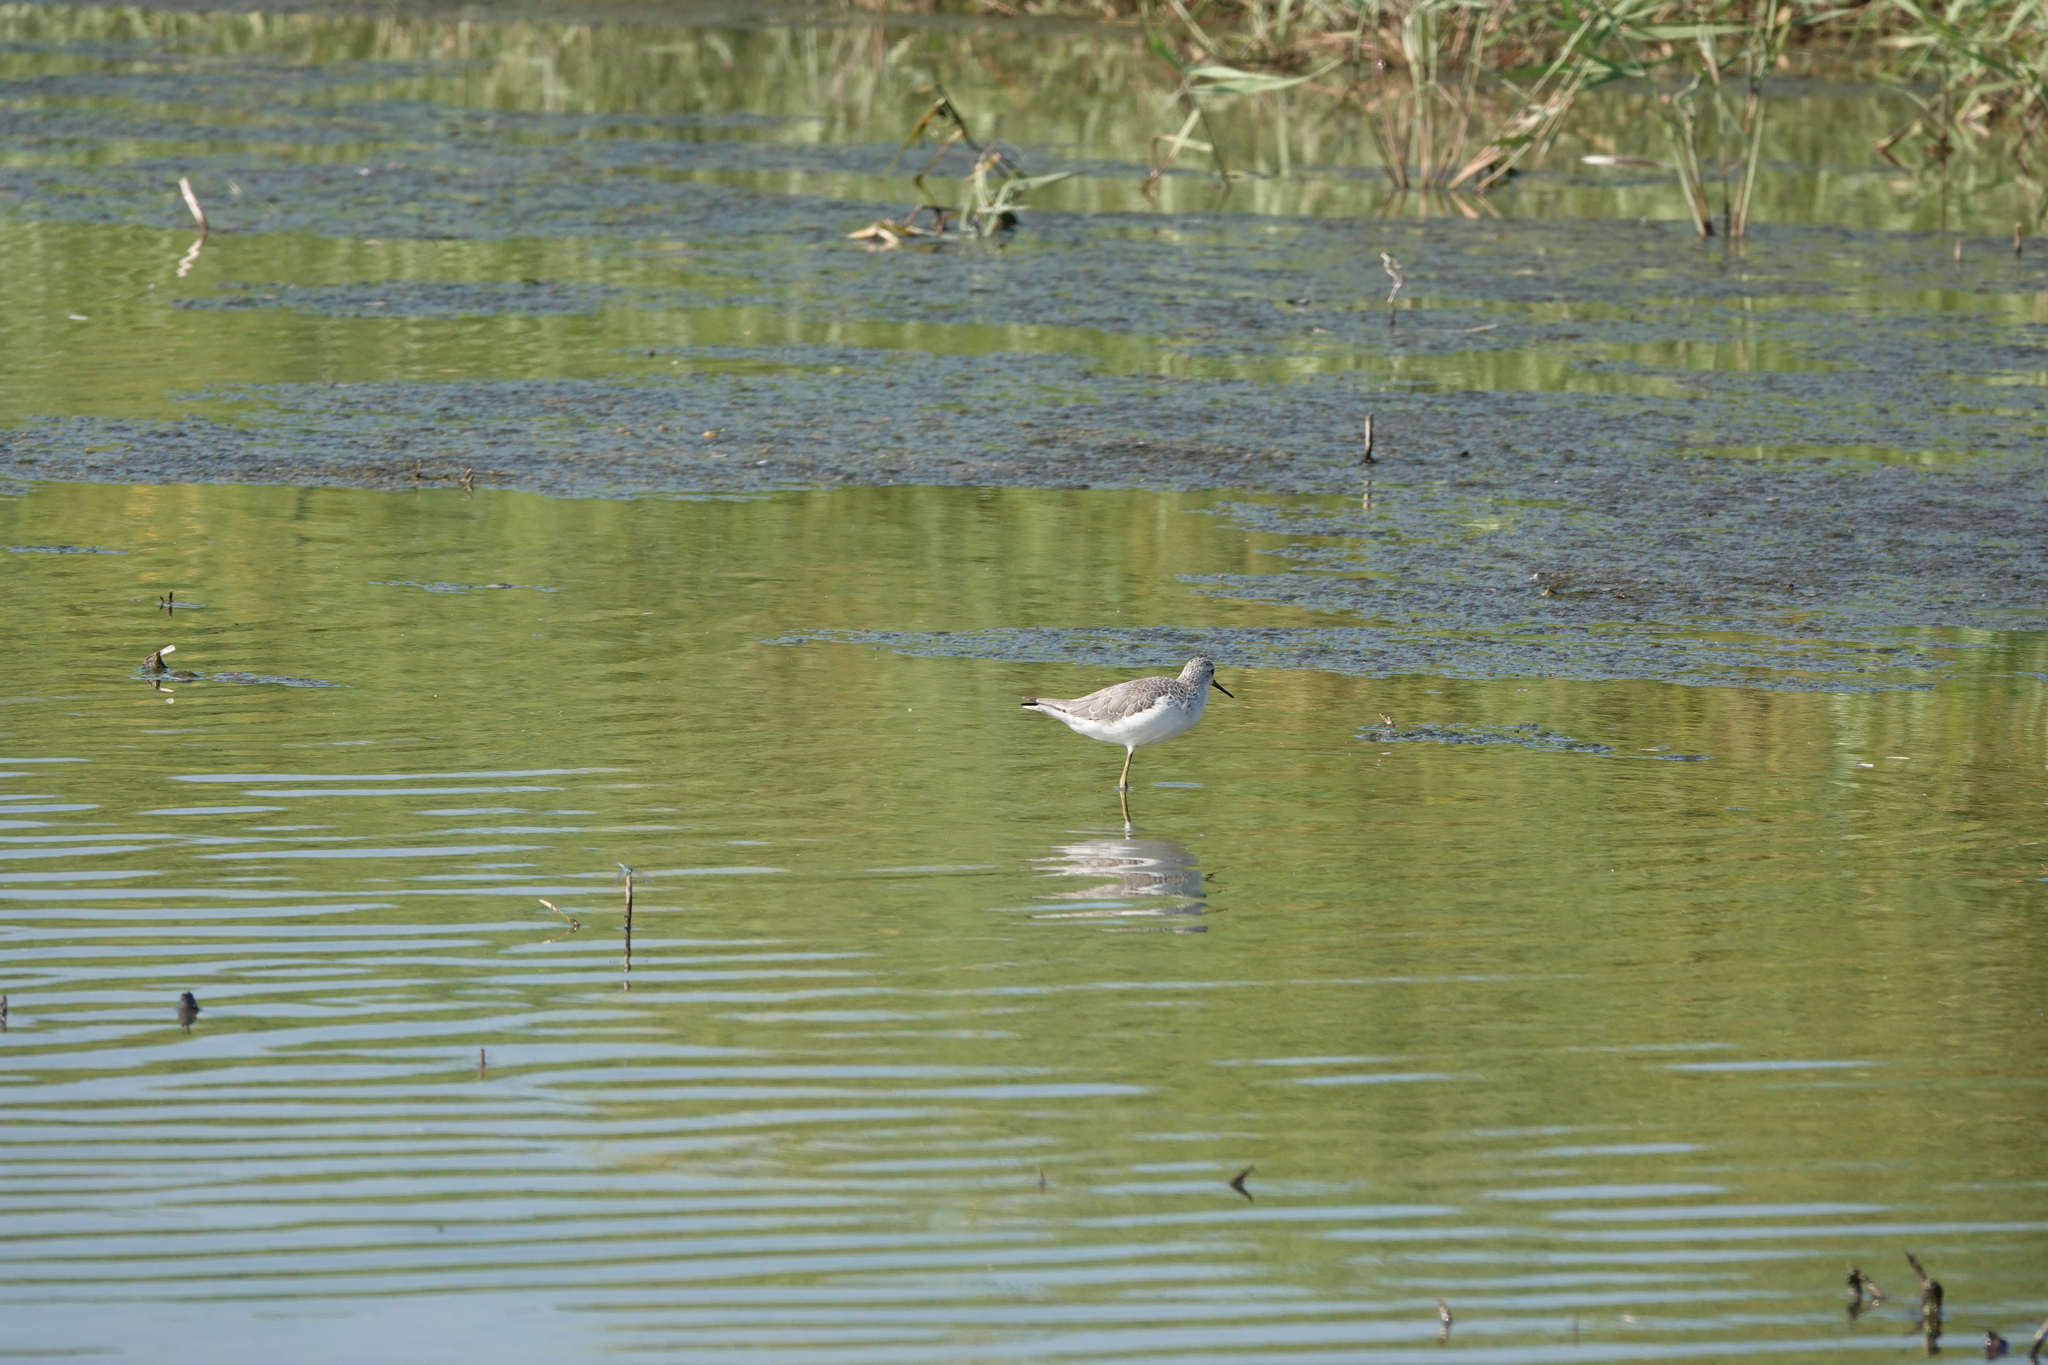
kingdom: Animalia
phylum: Chordata
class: Aves
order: Charadriiformes
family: Scolopacidae
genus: Tringa
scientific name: Tringa stagnatilis
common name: Marsh sandpiper
